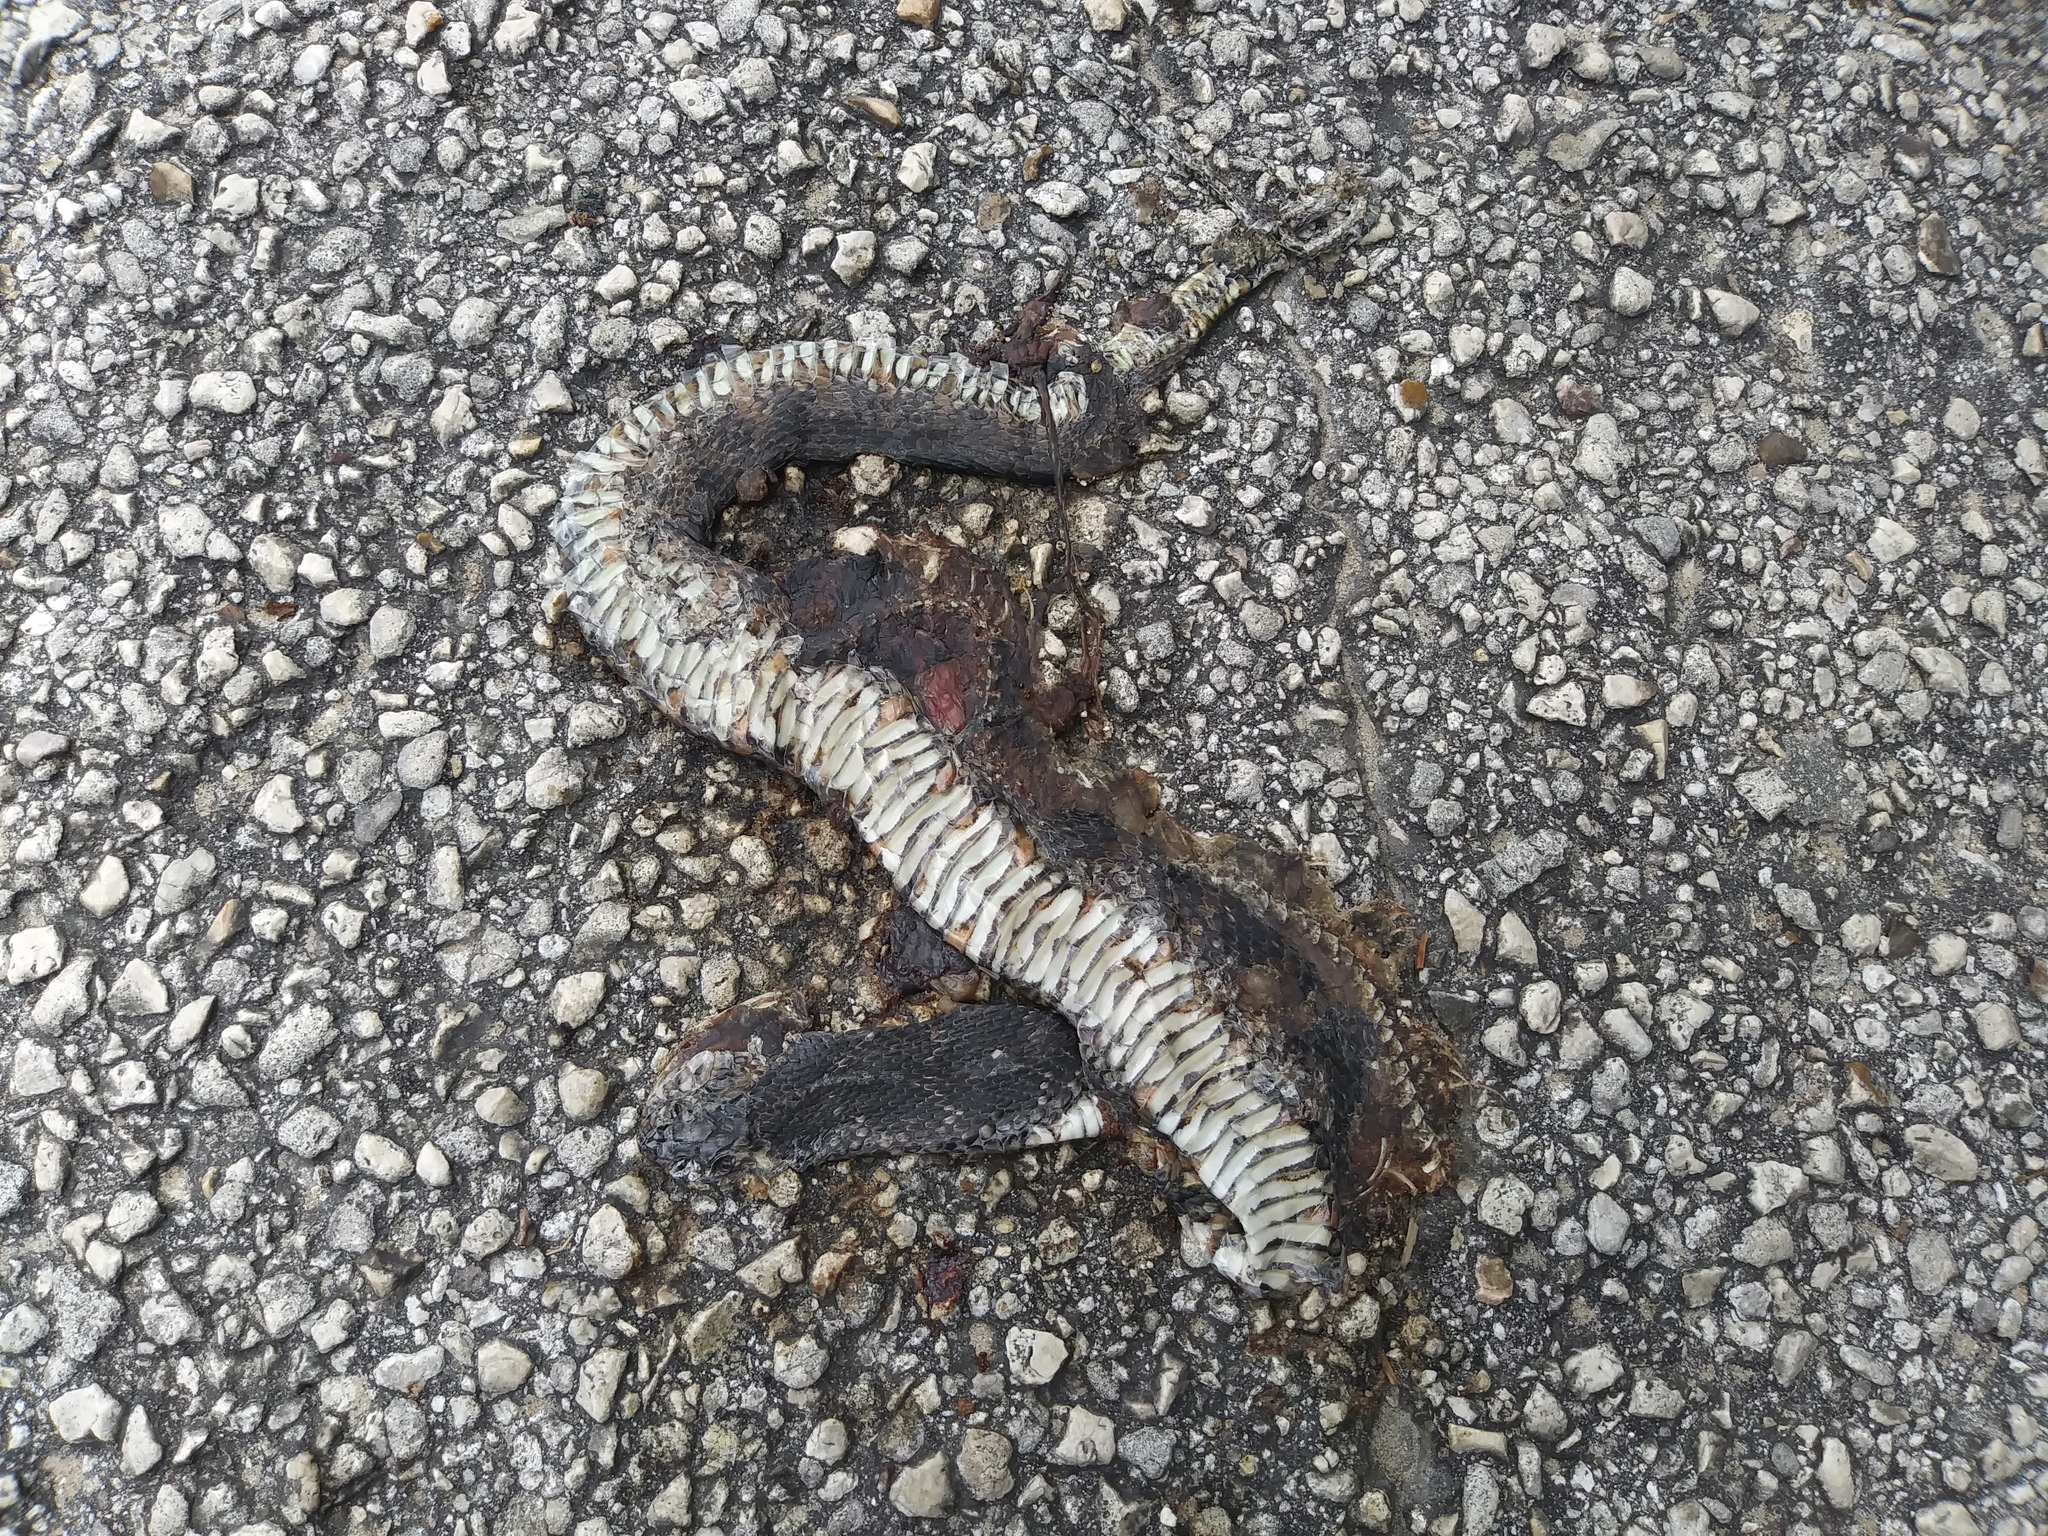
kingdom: Animalia
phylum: Chordata
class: Squamata
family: Colubridae
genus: Nerodia
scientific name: Nerodia fasciata
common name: Southern water snake
